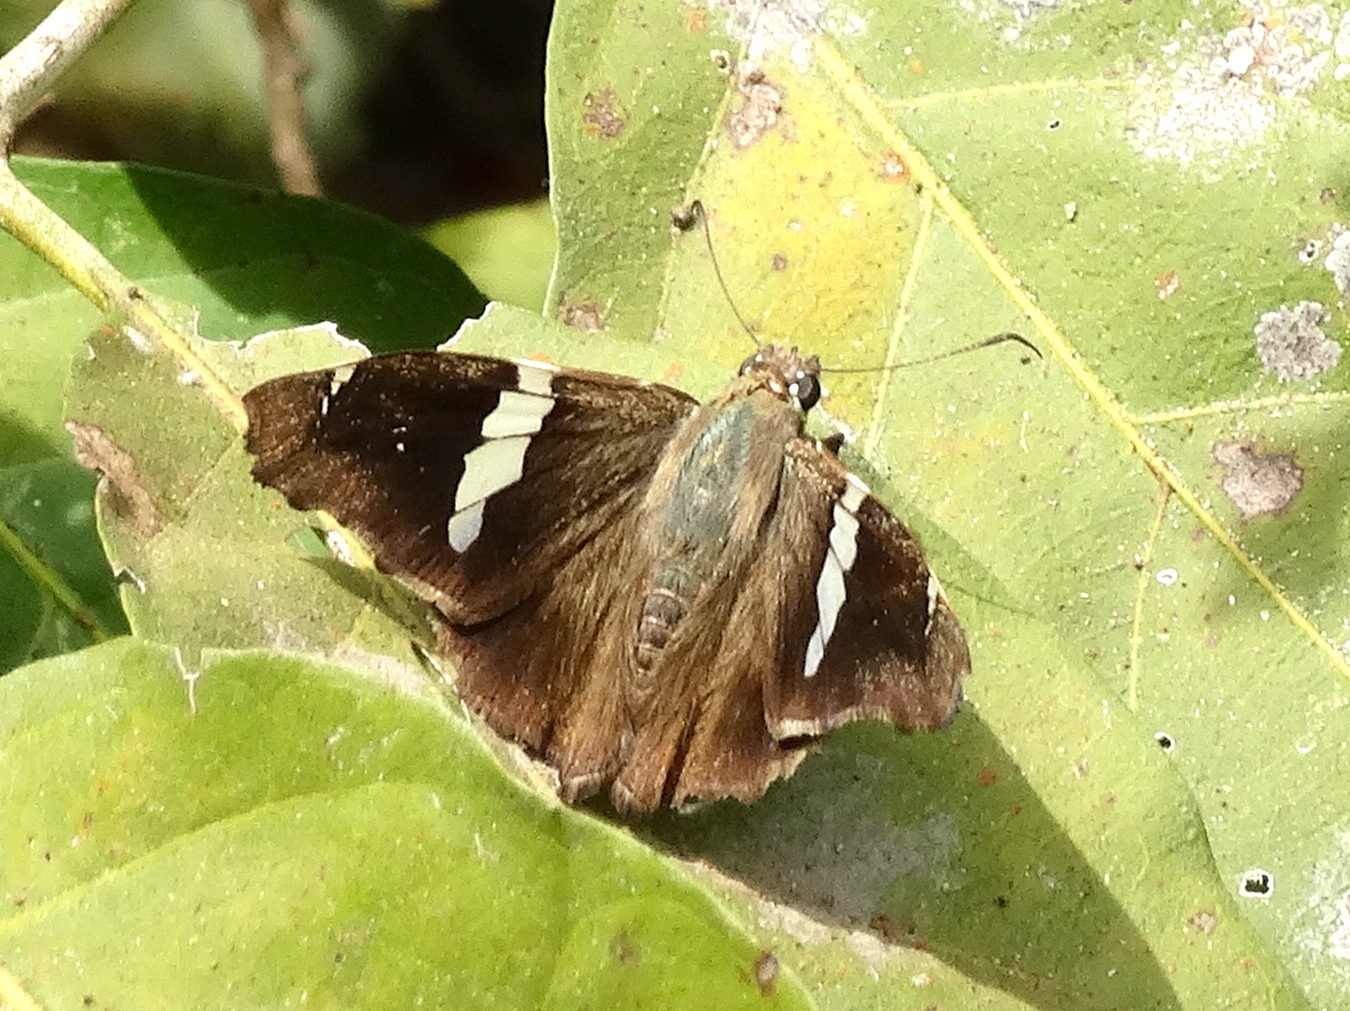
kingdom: Animalia
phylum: Arthropoda
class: Insecta
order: Lepidoptera
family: Hesperiidae
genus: Autochton
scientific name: Autochton neis
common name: Broad-banded skipper
